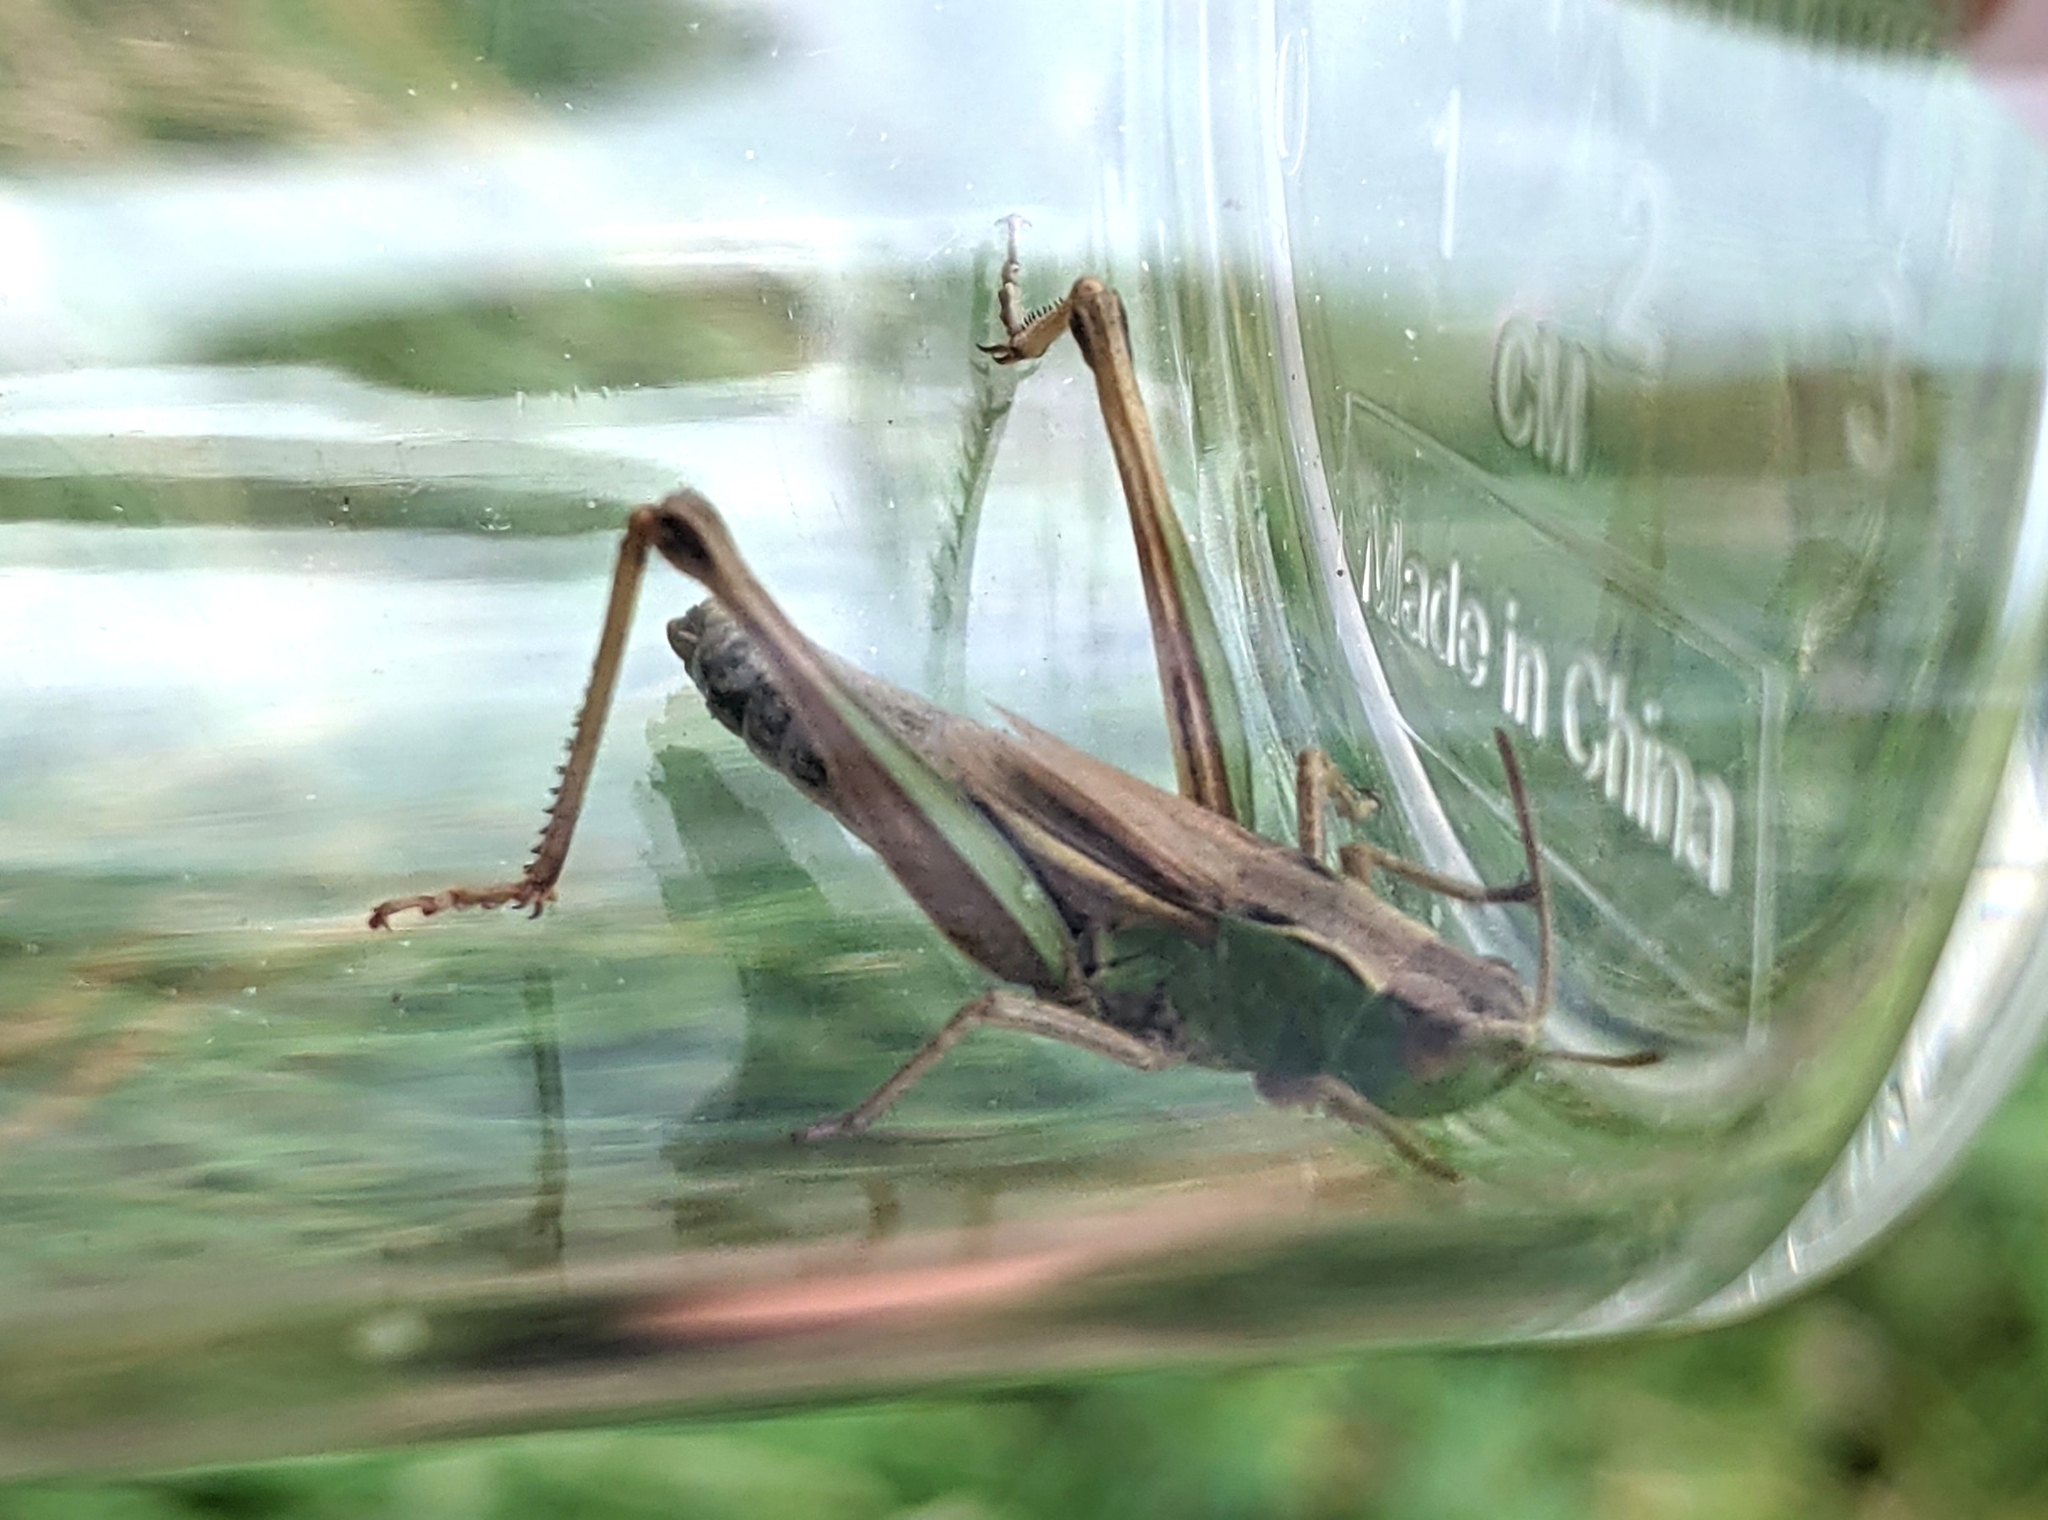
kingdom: Animalia
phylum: Arthropoda
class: Insecta
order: Orthoptera
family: Acrididae
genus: Pseudochorthippus
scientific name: Pseudochorthippus parallelus
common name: Meadow grasshopper
